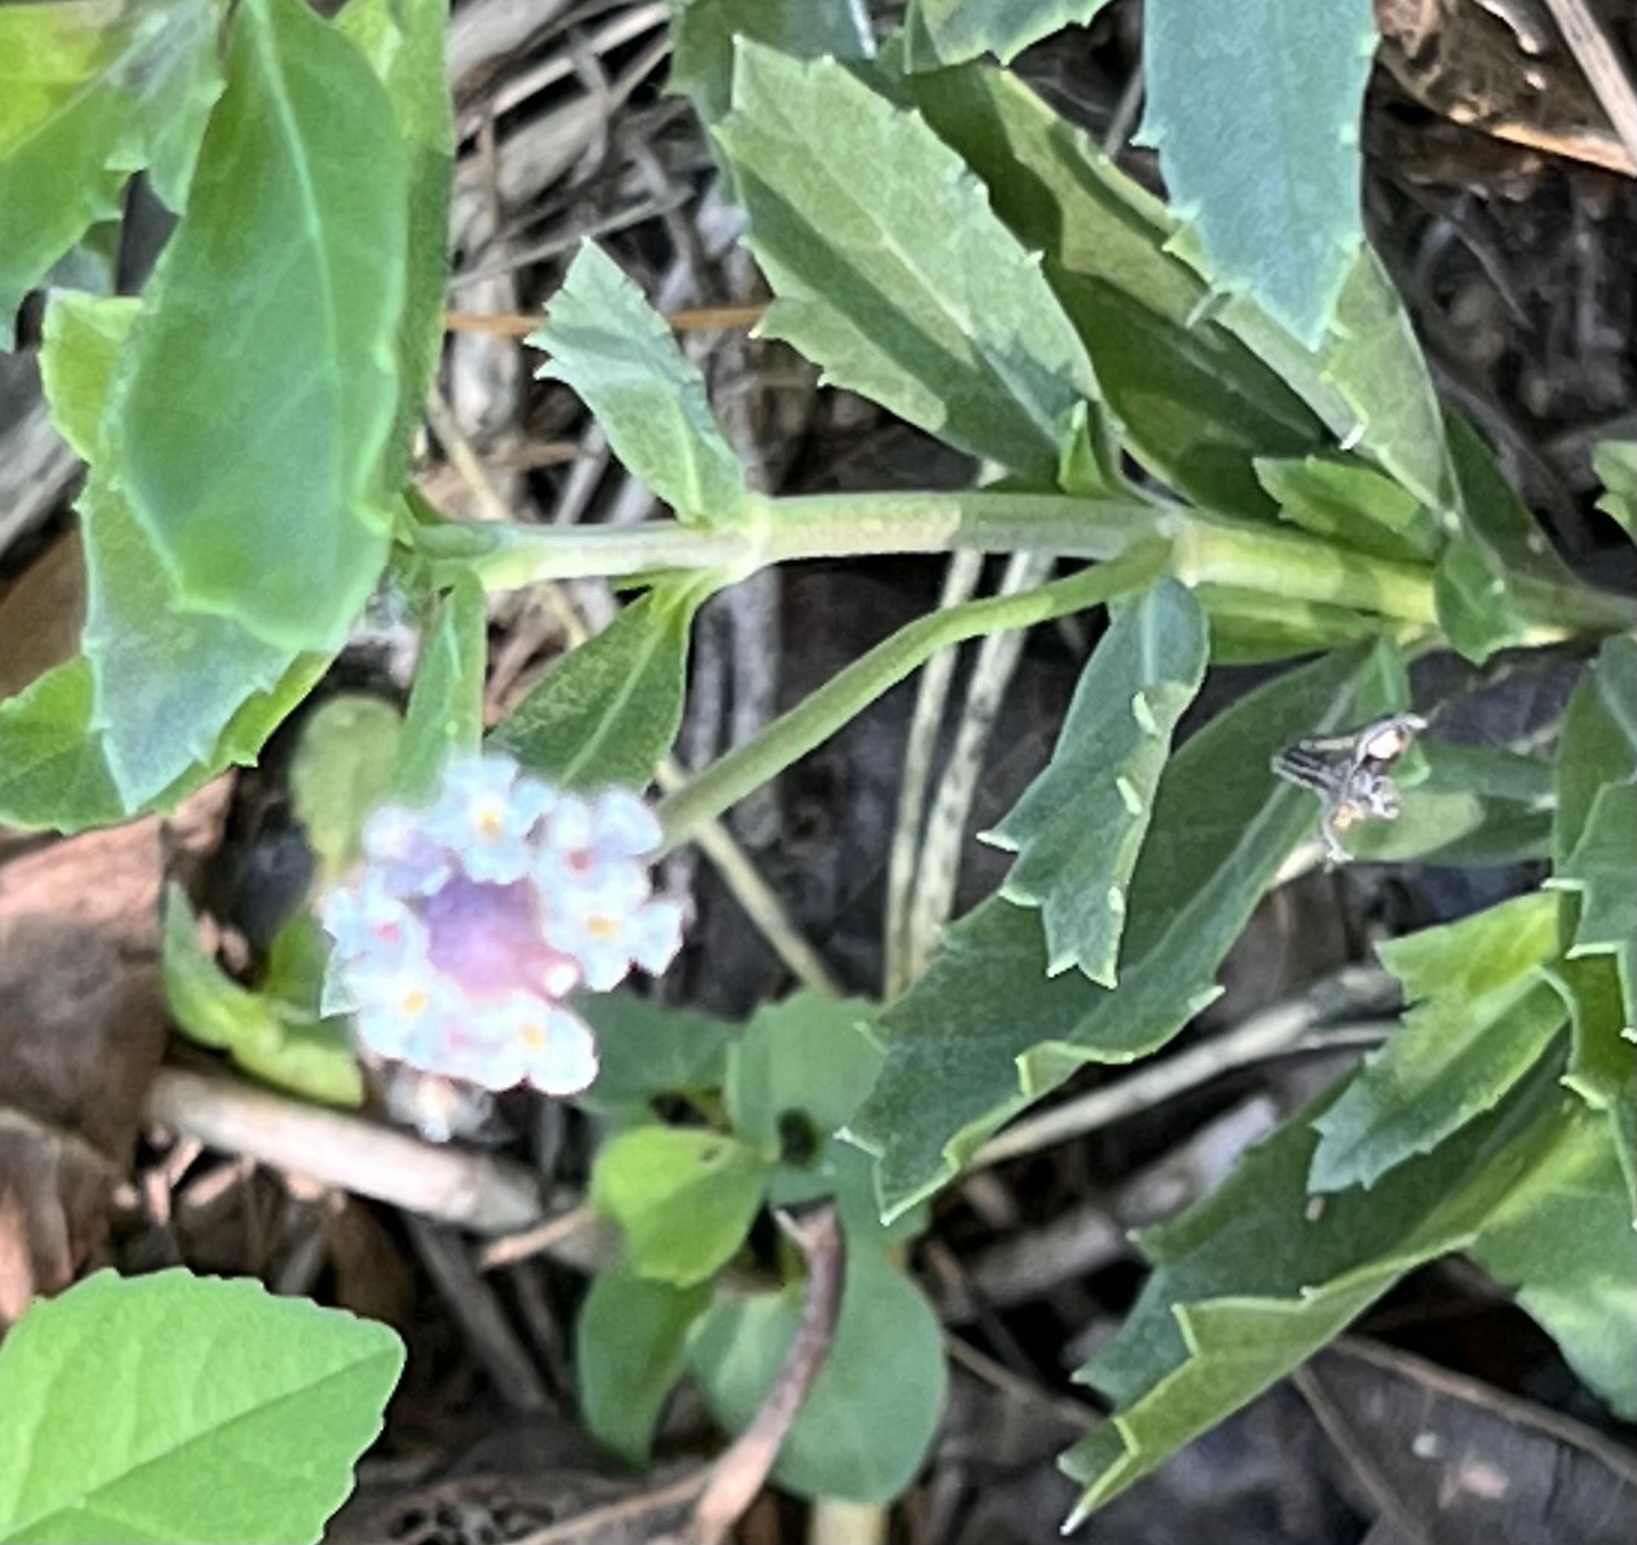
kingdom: Plantae
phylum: Tracheophyta
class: Magnoliopsida
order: Lamiales
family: Verbenaceae
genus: Phyla
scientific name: Phyla nodiflora
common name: Frogfruit
